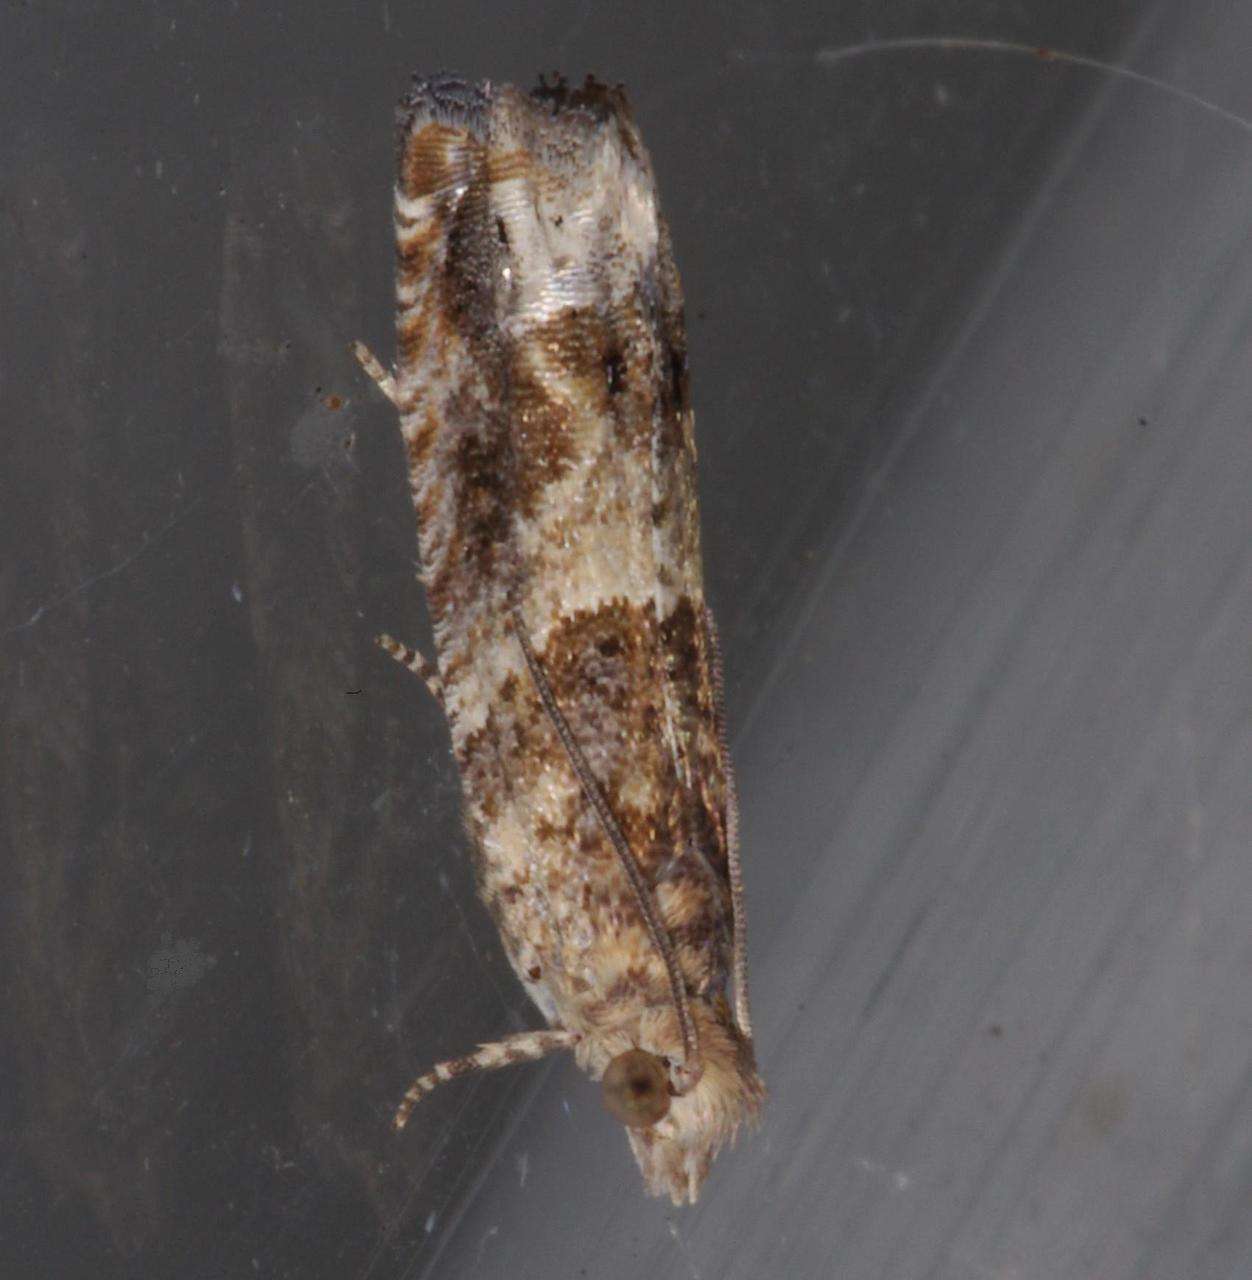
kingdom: Animalia
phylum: Arthropoda
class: Insecta
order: Lepidoptera
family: Tortricidae
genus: Crocidosema
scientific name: Crocidosema plebejana
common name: Southern bell
